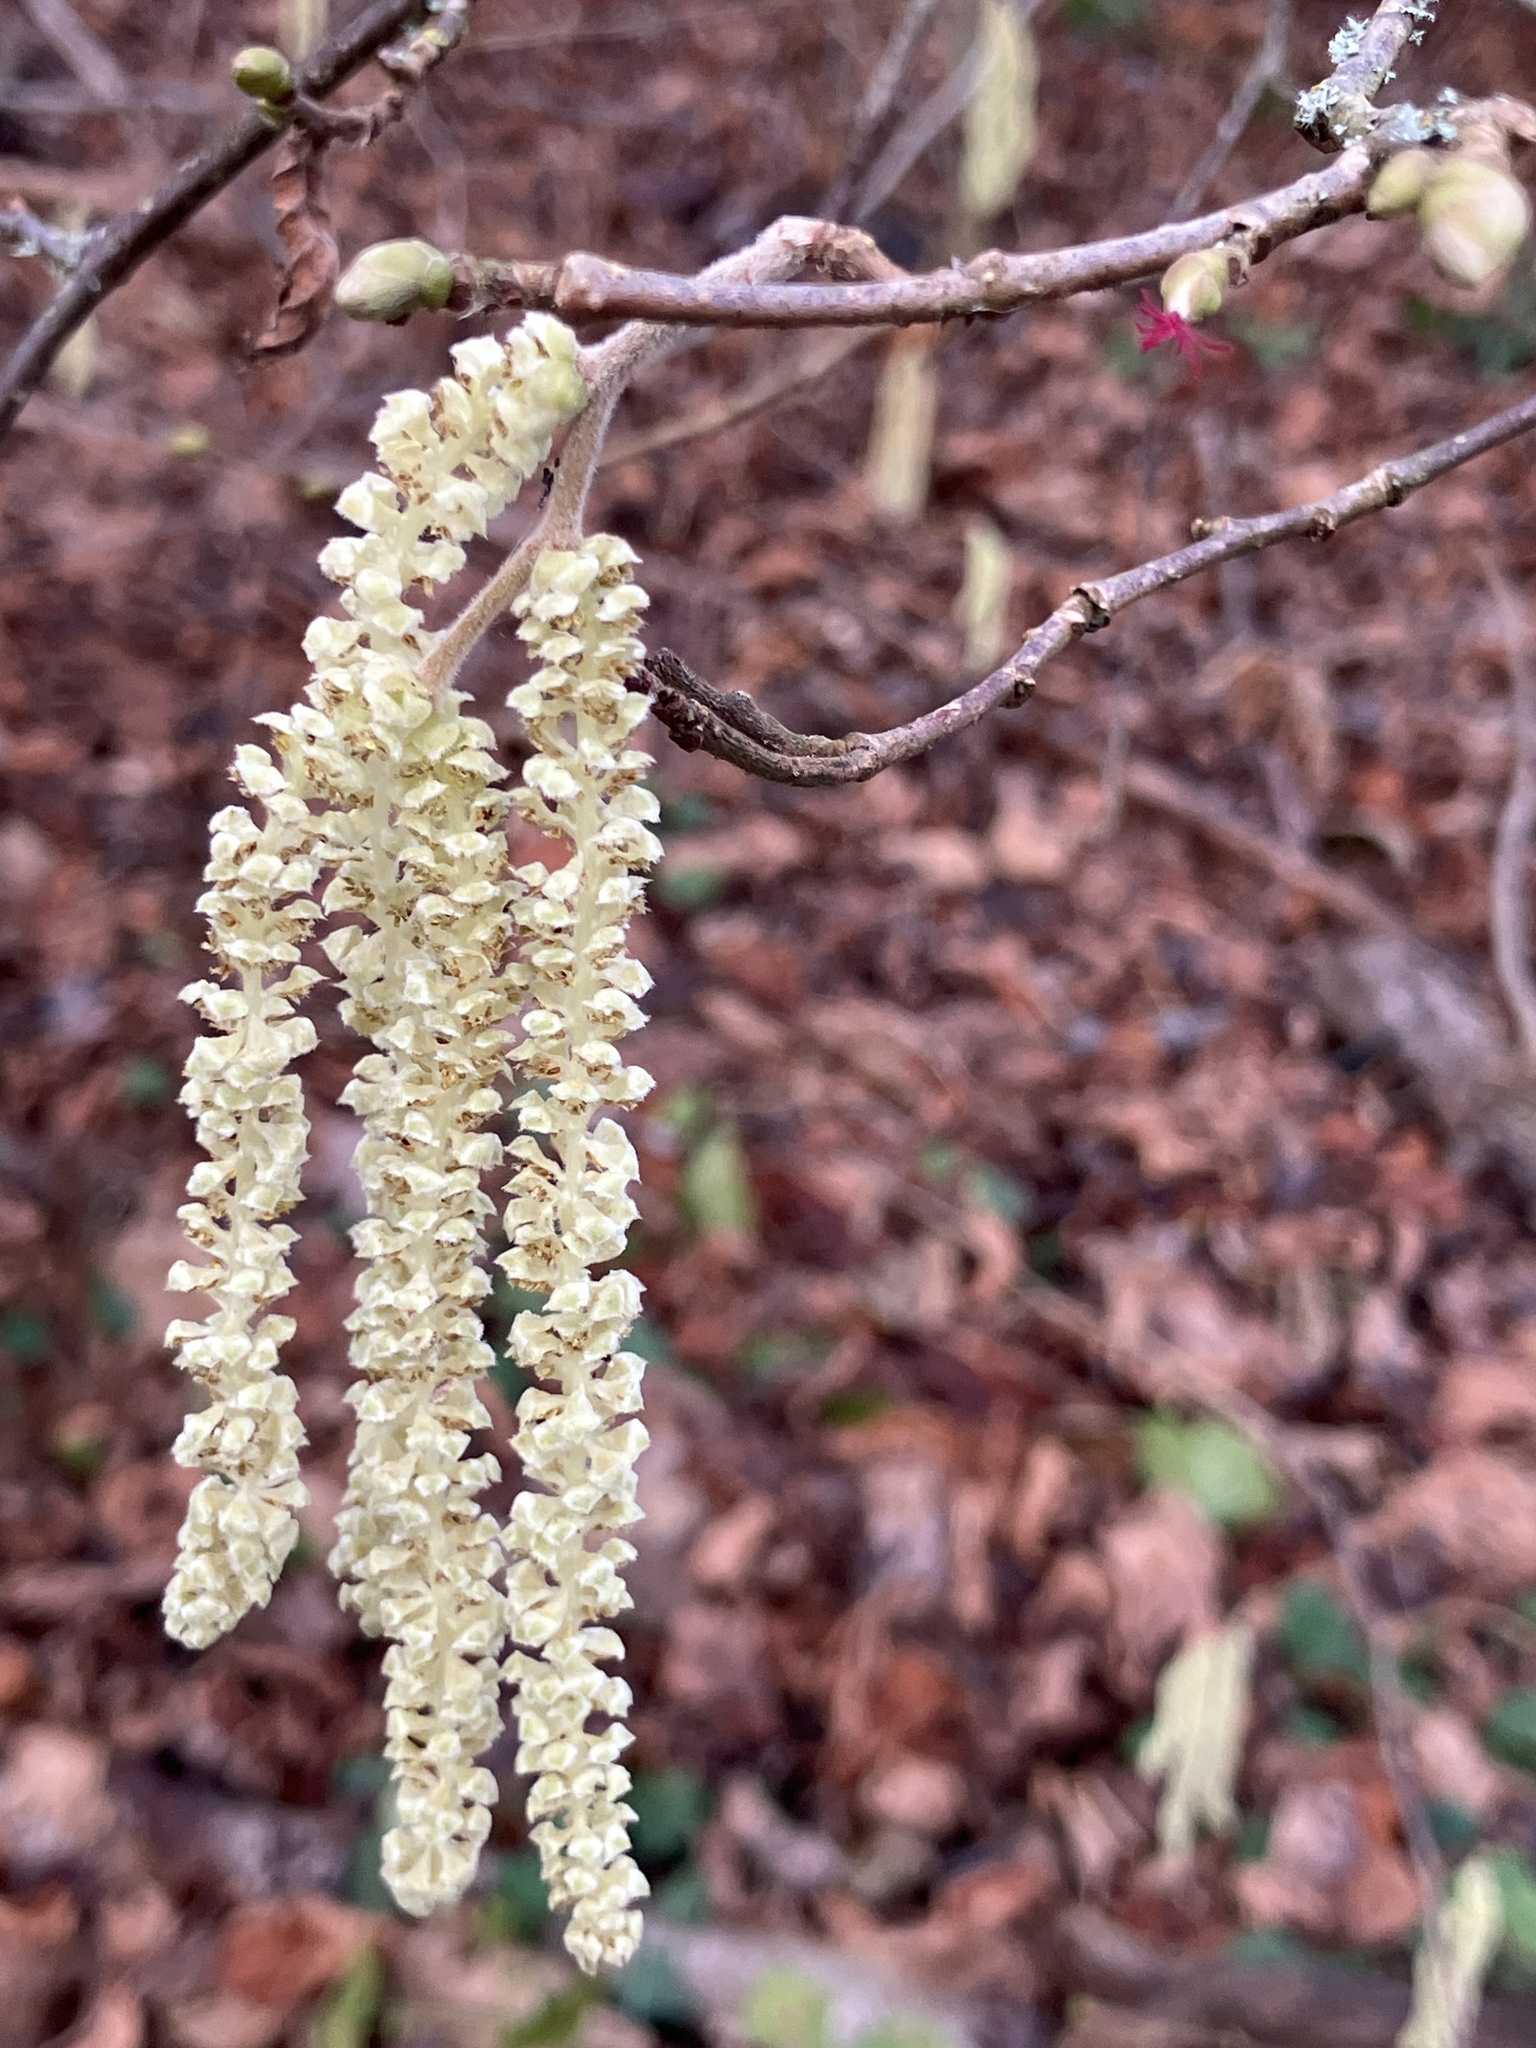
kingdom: Plantae
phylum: Tracheophyta
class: Magnoliopsida
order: Fagales
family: Betulaceae
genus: Corylus
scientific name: Corylus avellana
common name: European hazel
